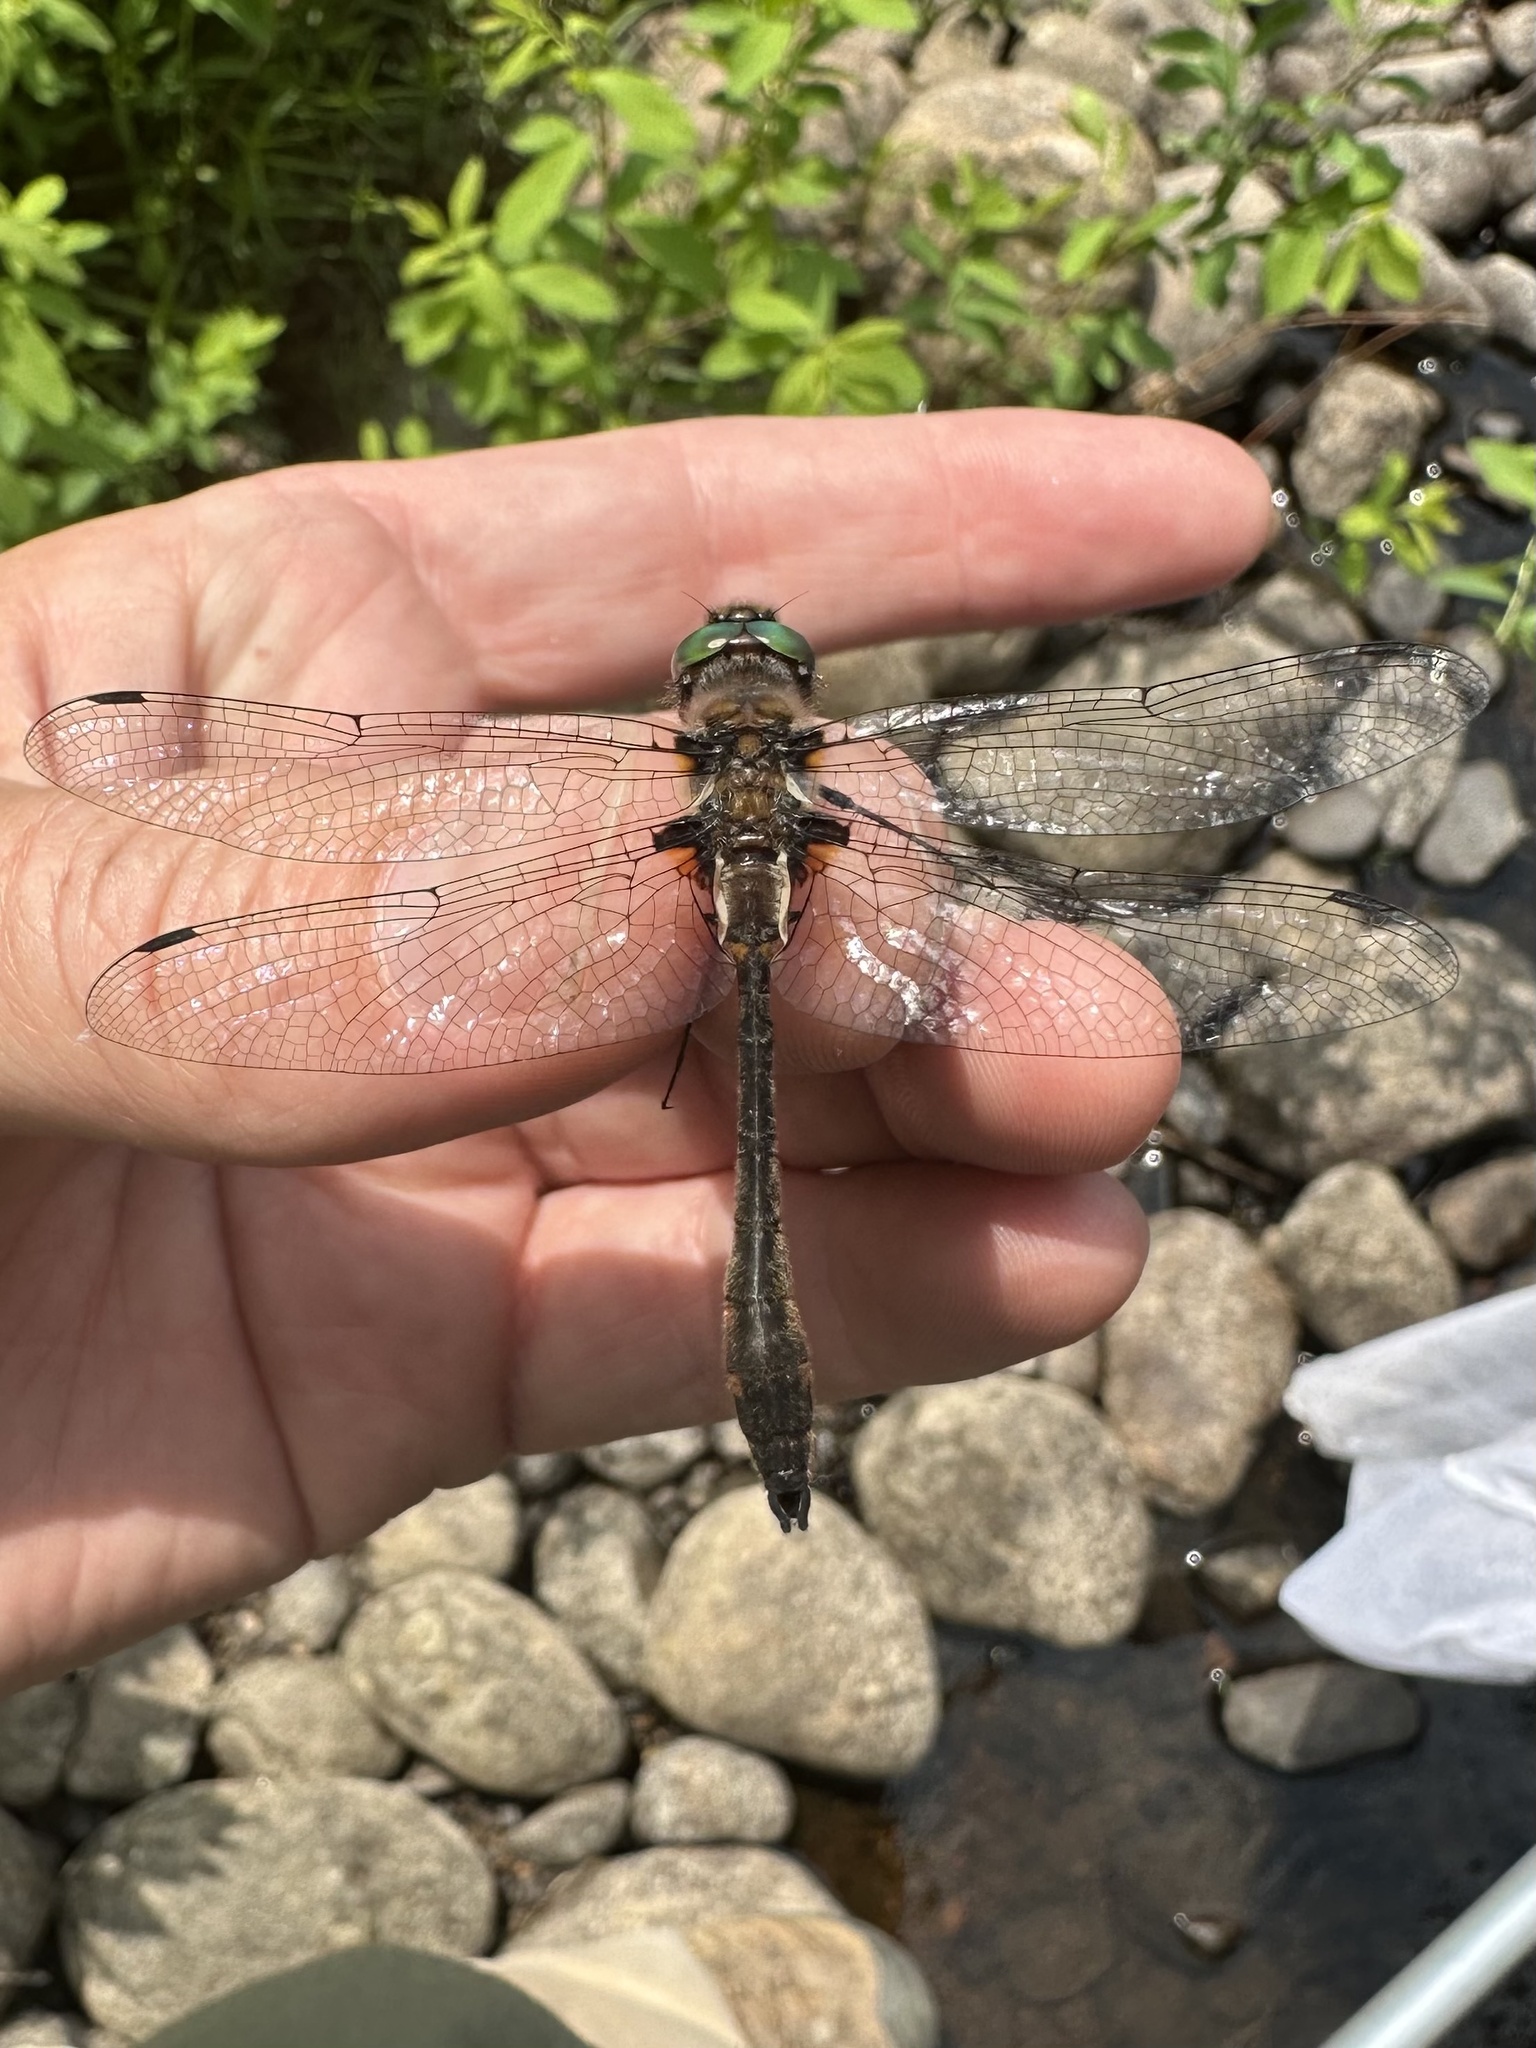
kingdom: Animalia
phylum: Arthropoda
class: Insecta
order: Odonata
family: Corduliidae
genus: Helocordulia
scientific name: Helocordulia uhleri
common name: Uhler's sundragon
